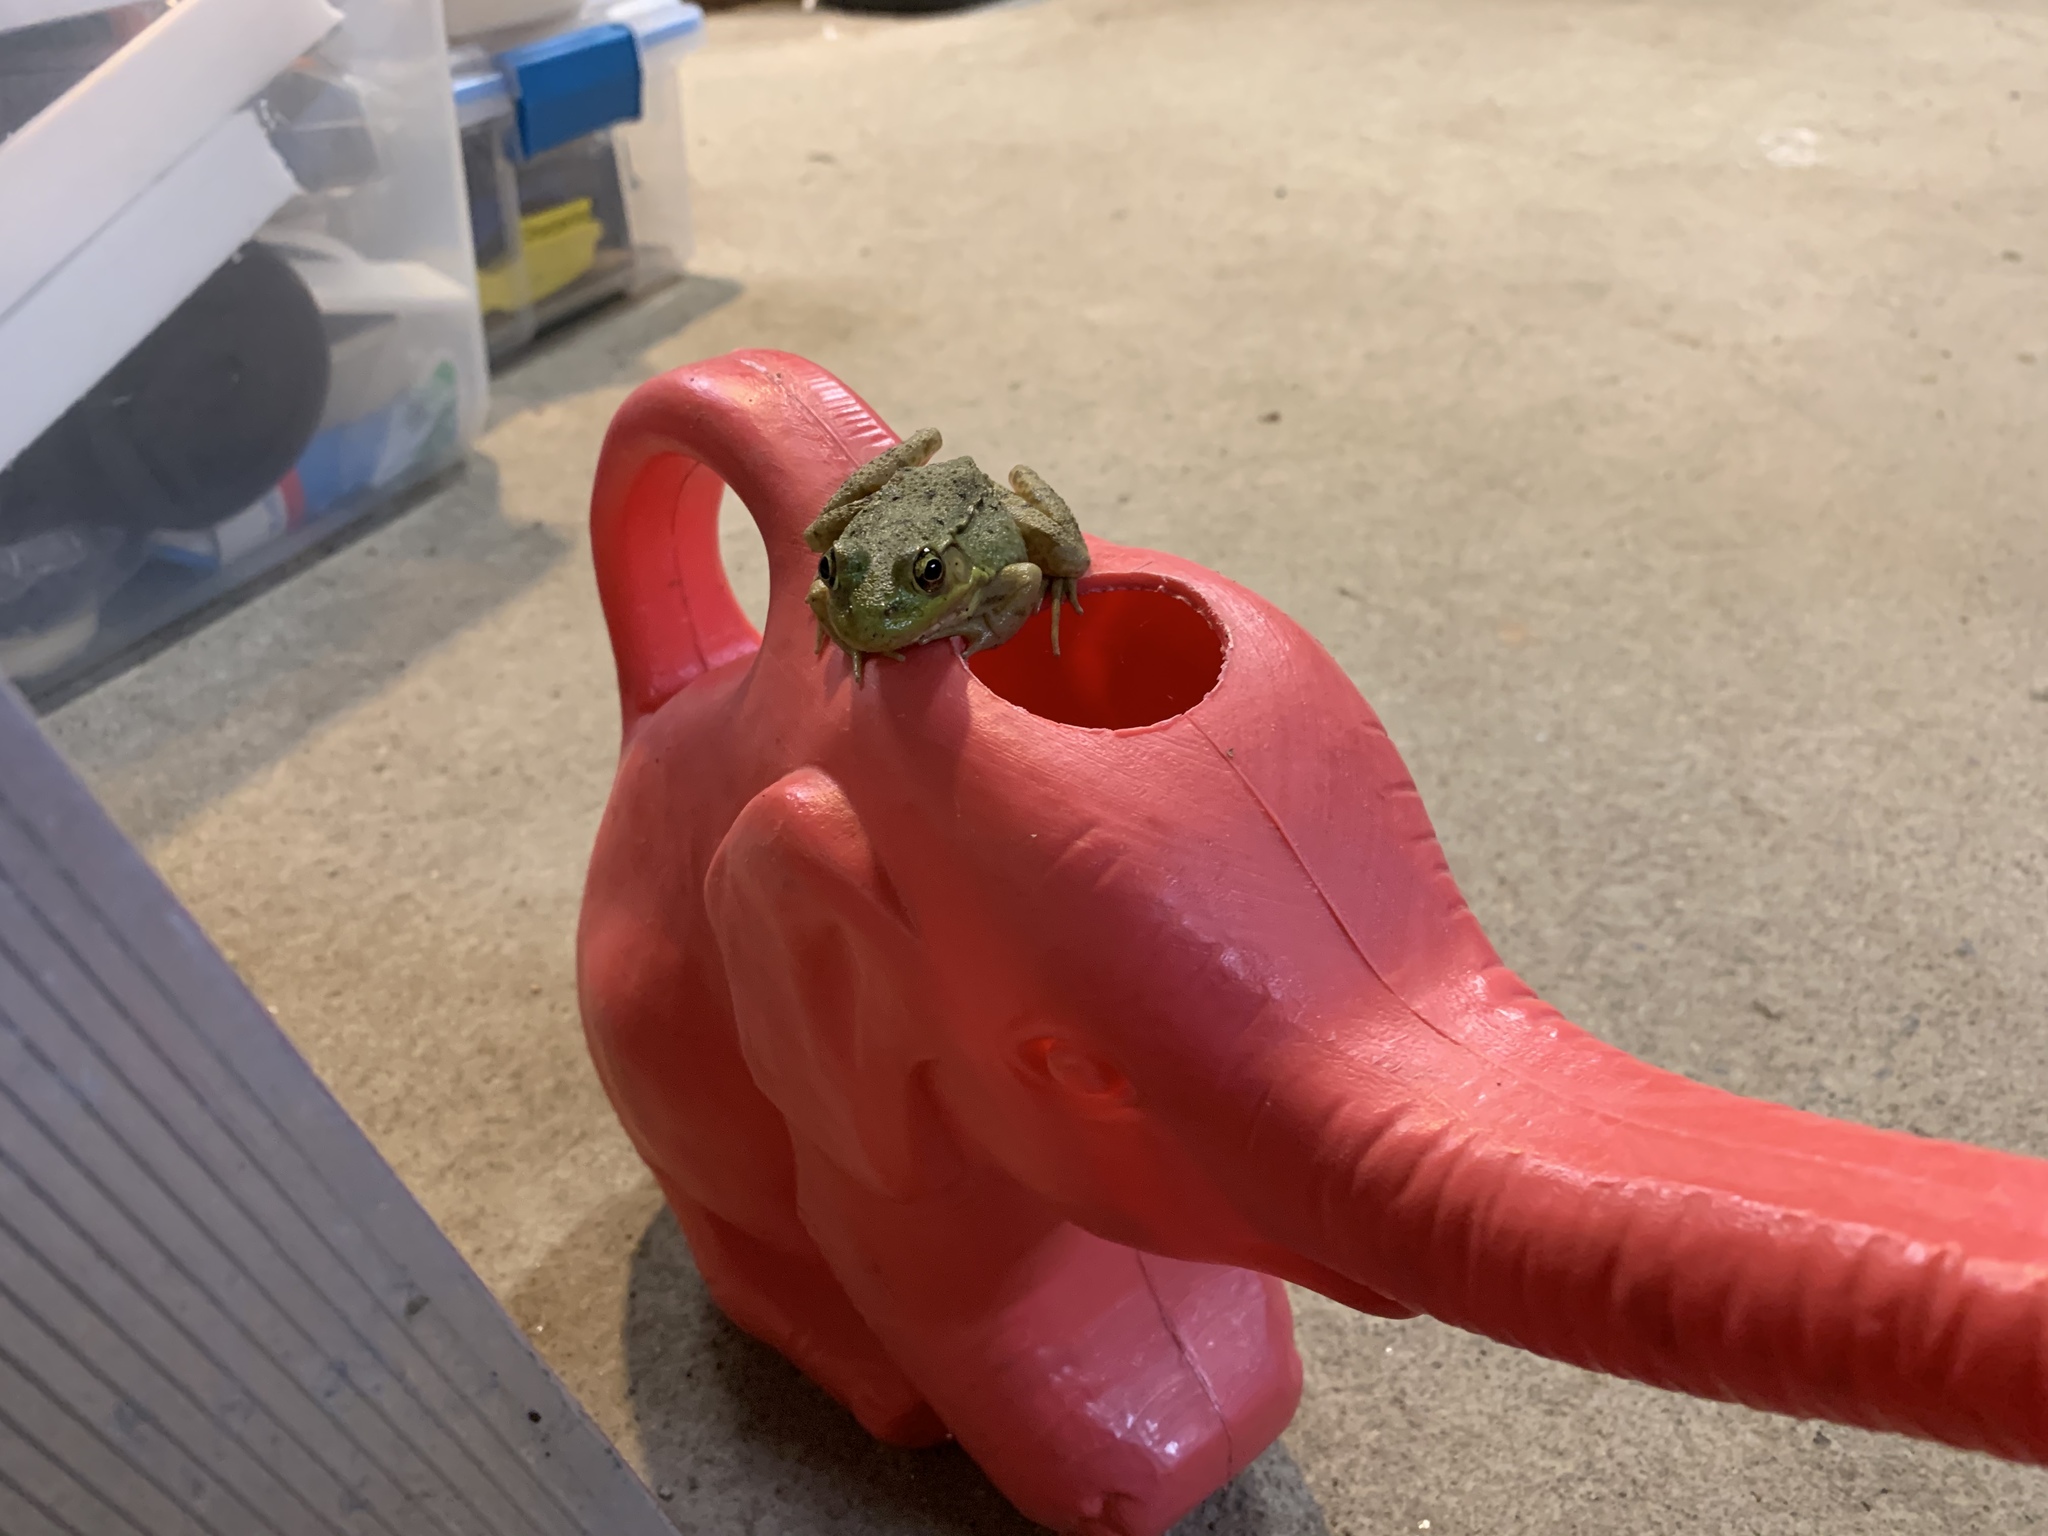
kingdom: Animalia
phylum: Chordata
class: Amphibia
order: Anura
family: Ranidae
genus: Lithobates
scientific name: Lithobates clamitans
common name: Green frog
